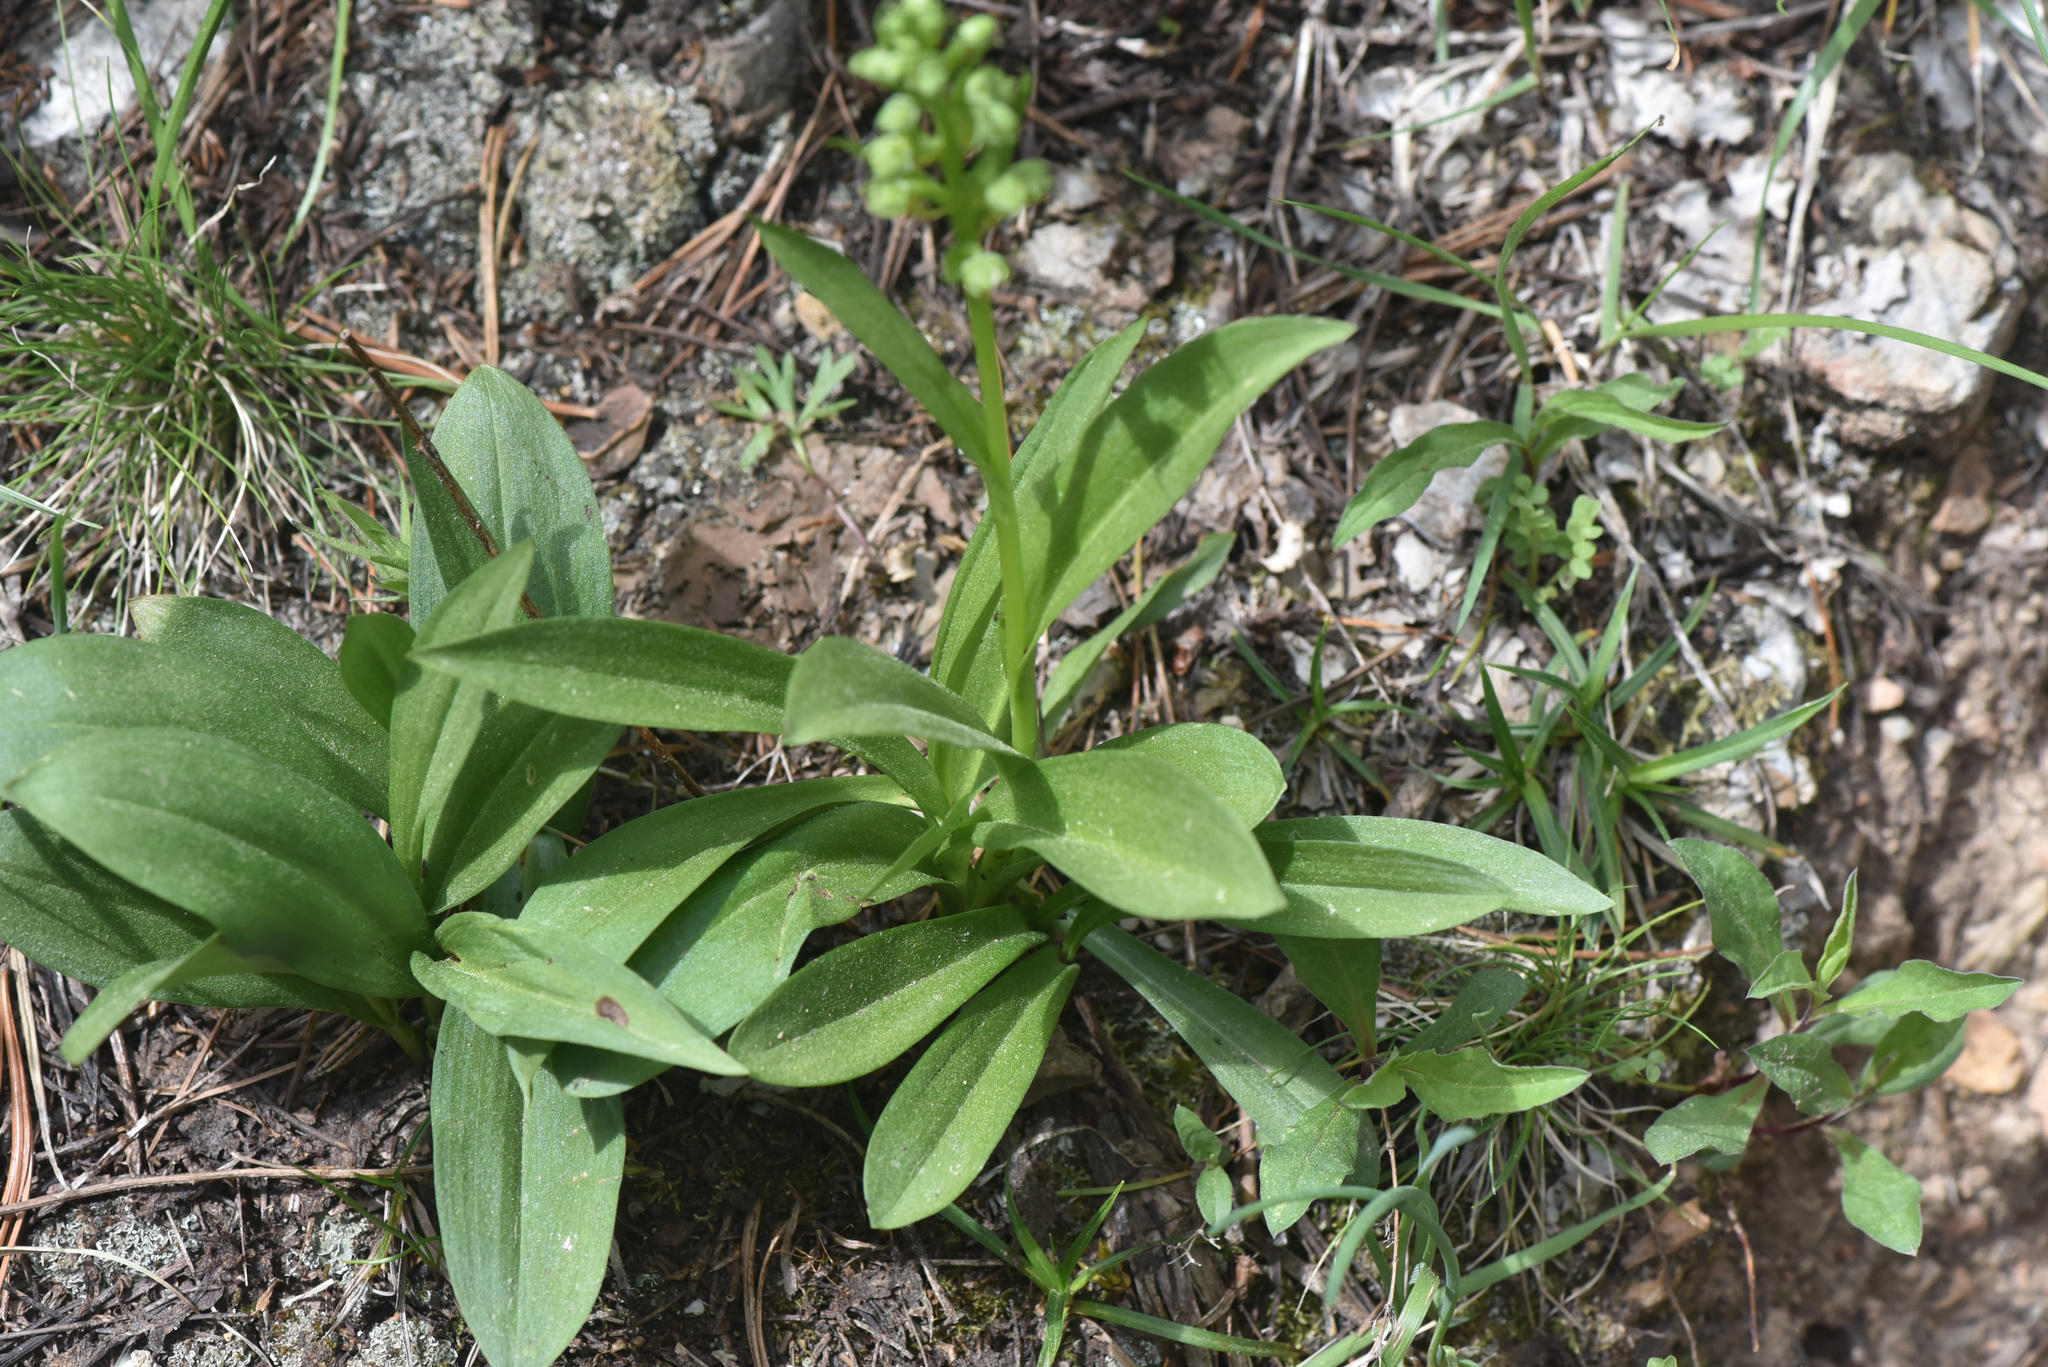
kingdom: Plantae
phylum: Tracheophyta
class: Liliopsida
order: Asparagales
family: Orchidaceae
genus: Dactylorhiza
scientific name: Dactylorhiza viridis
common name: Longbract frog orchid
